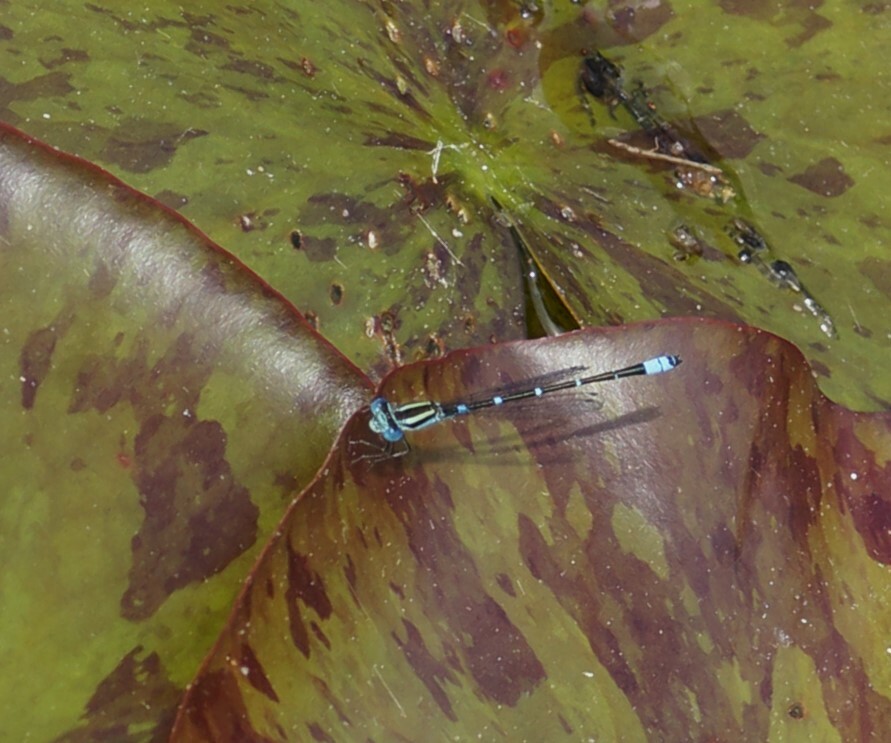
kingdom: Animalia
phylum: Arthropoda
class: Insecta
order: Odonata
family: Coenagrionidae
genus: Austroagrion
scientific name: Austroagrion watsoni
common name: Eastern billabongfly
